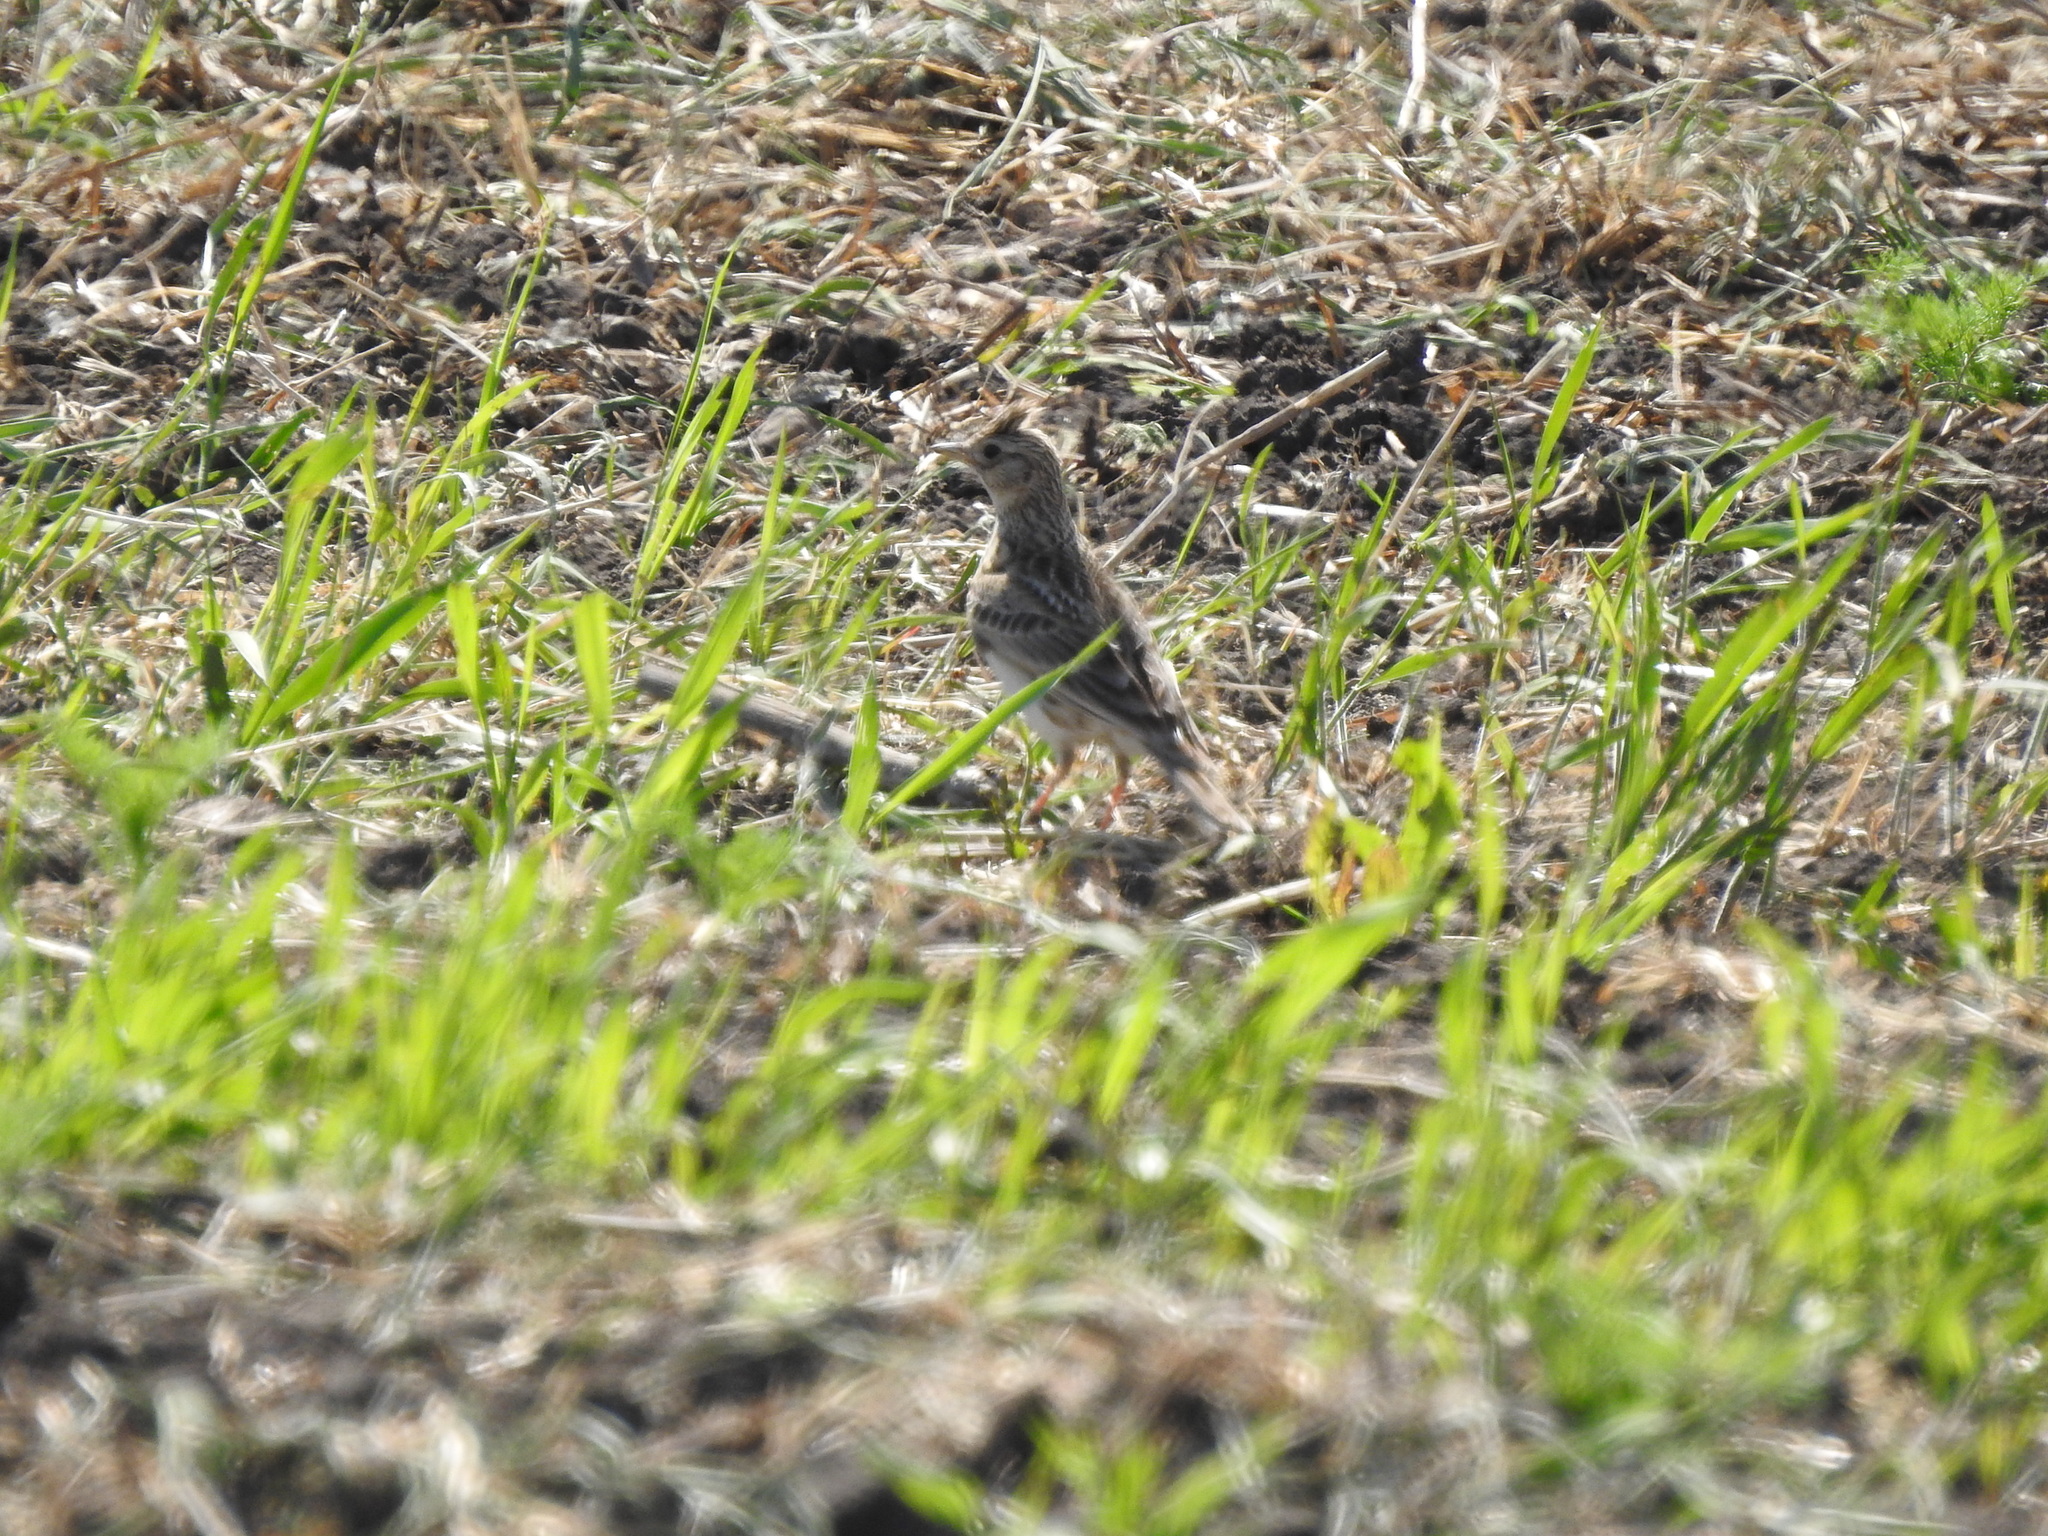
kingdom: Animalia
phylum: Chordata
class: Aves
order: Passeriformes
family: Alaudidae
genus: Alauda
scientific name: Alauda arvensis
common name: Eurasian skylark
